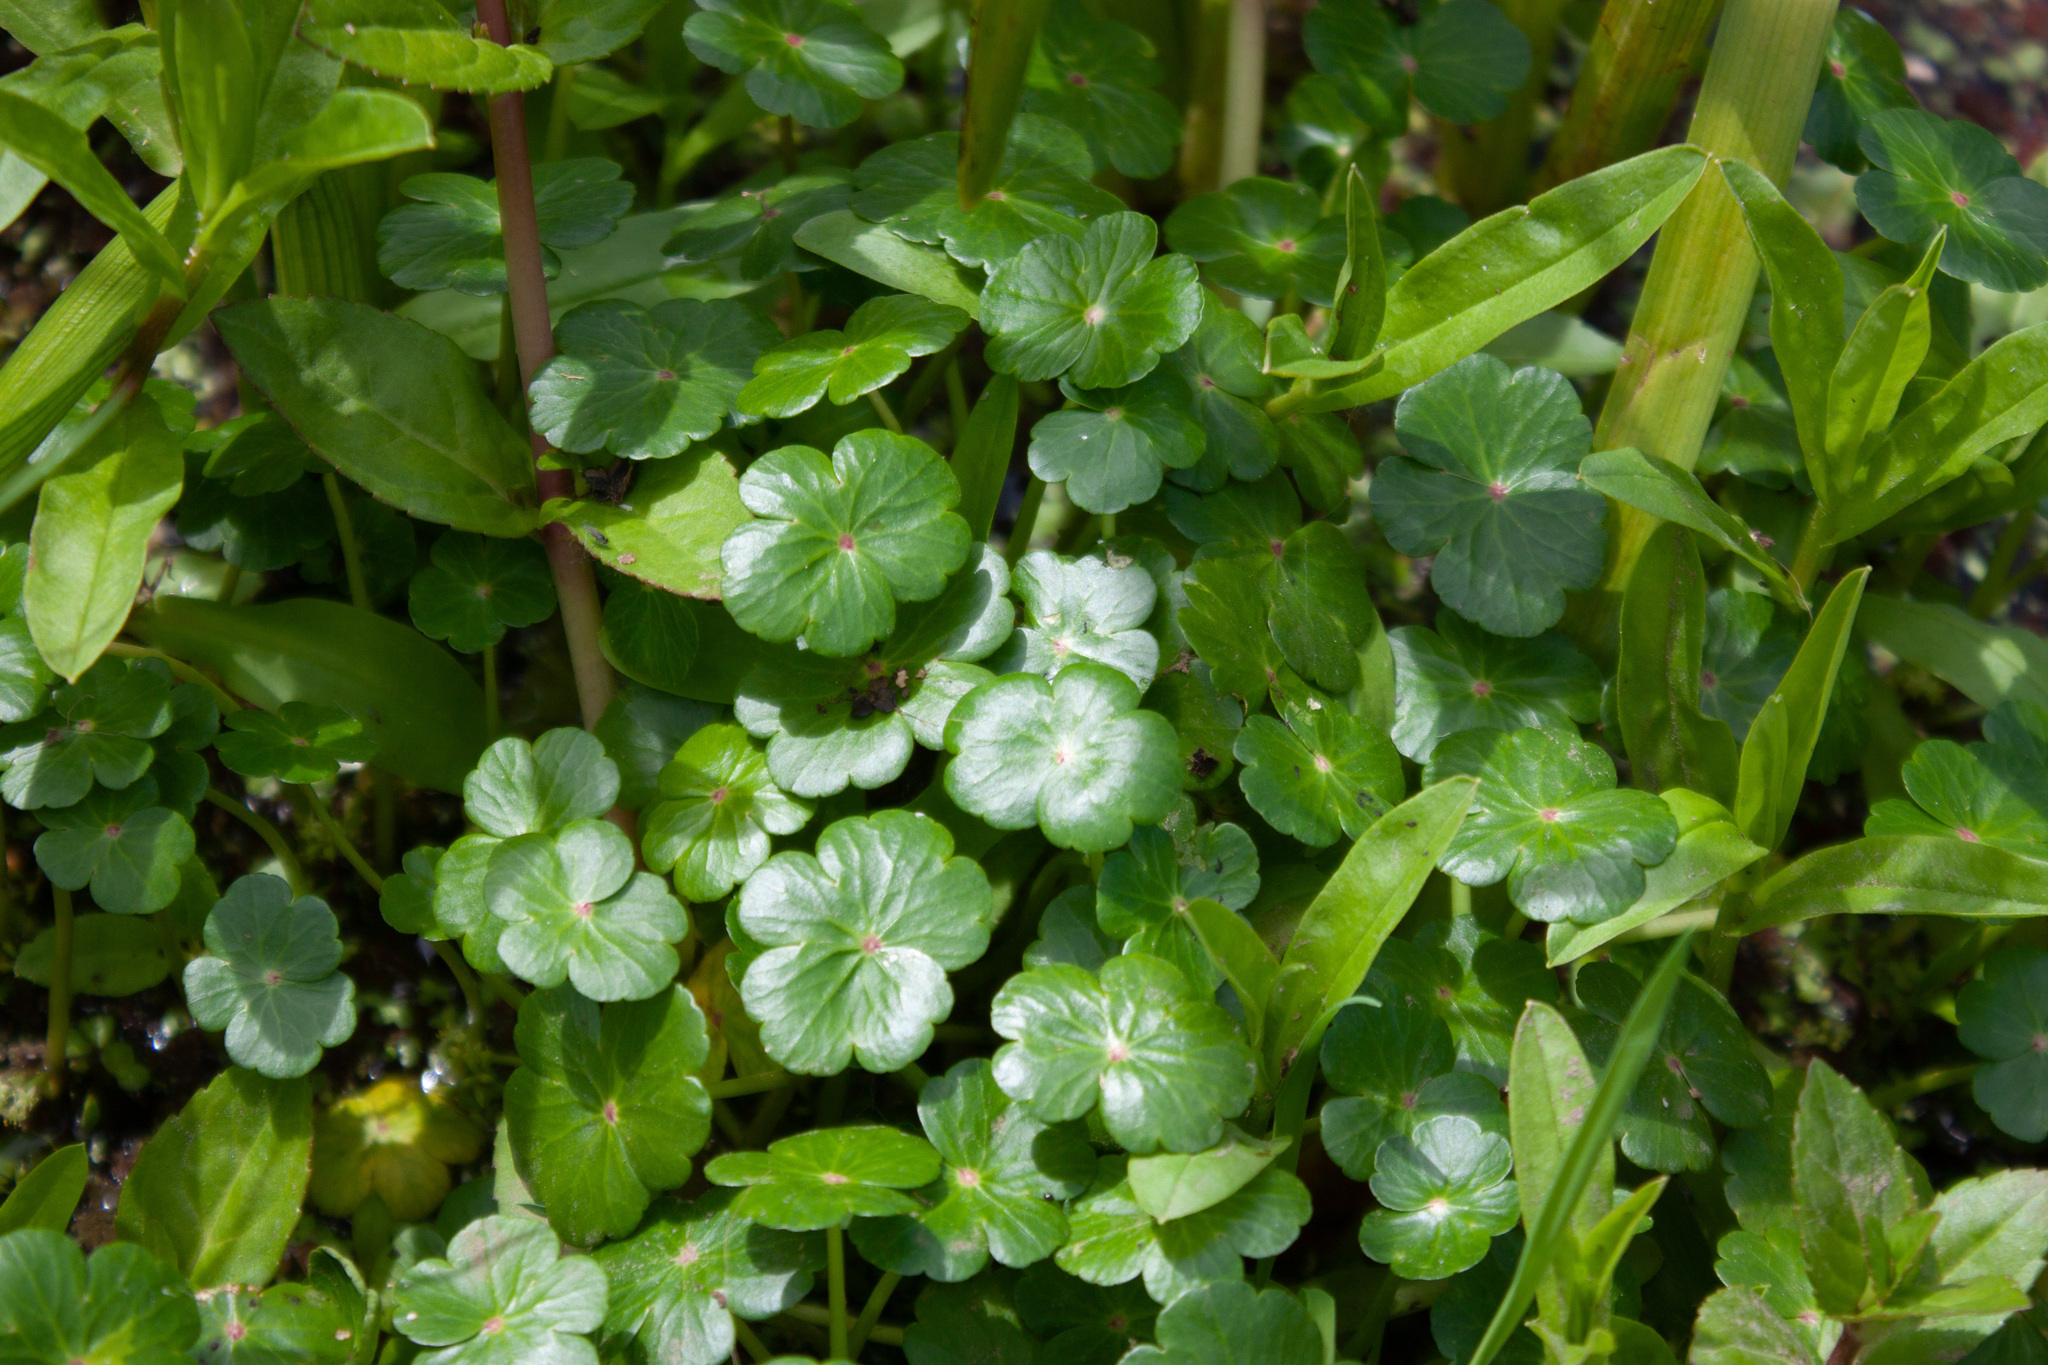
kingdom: Plantae
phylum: Tracheophyta
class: Magnoliopsida
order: Apiales
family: Araliaceae
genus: Hydrocotyle
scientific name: Hydrocotyle ranunculoides
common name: Floating pennywort
